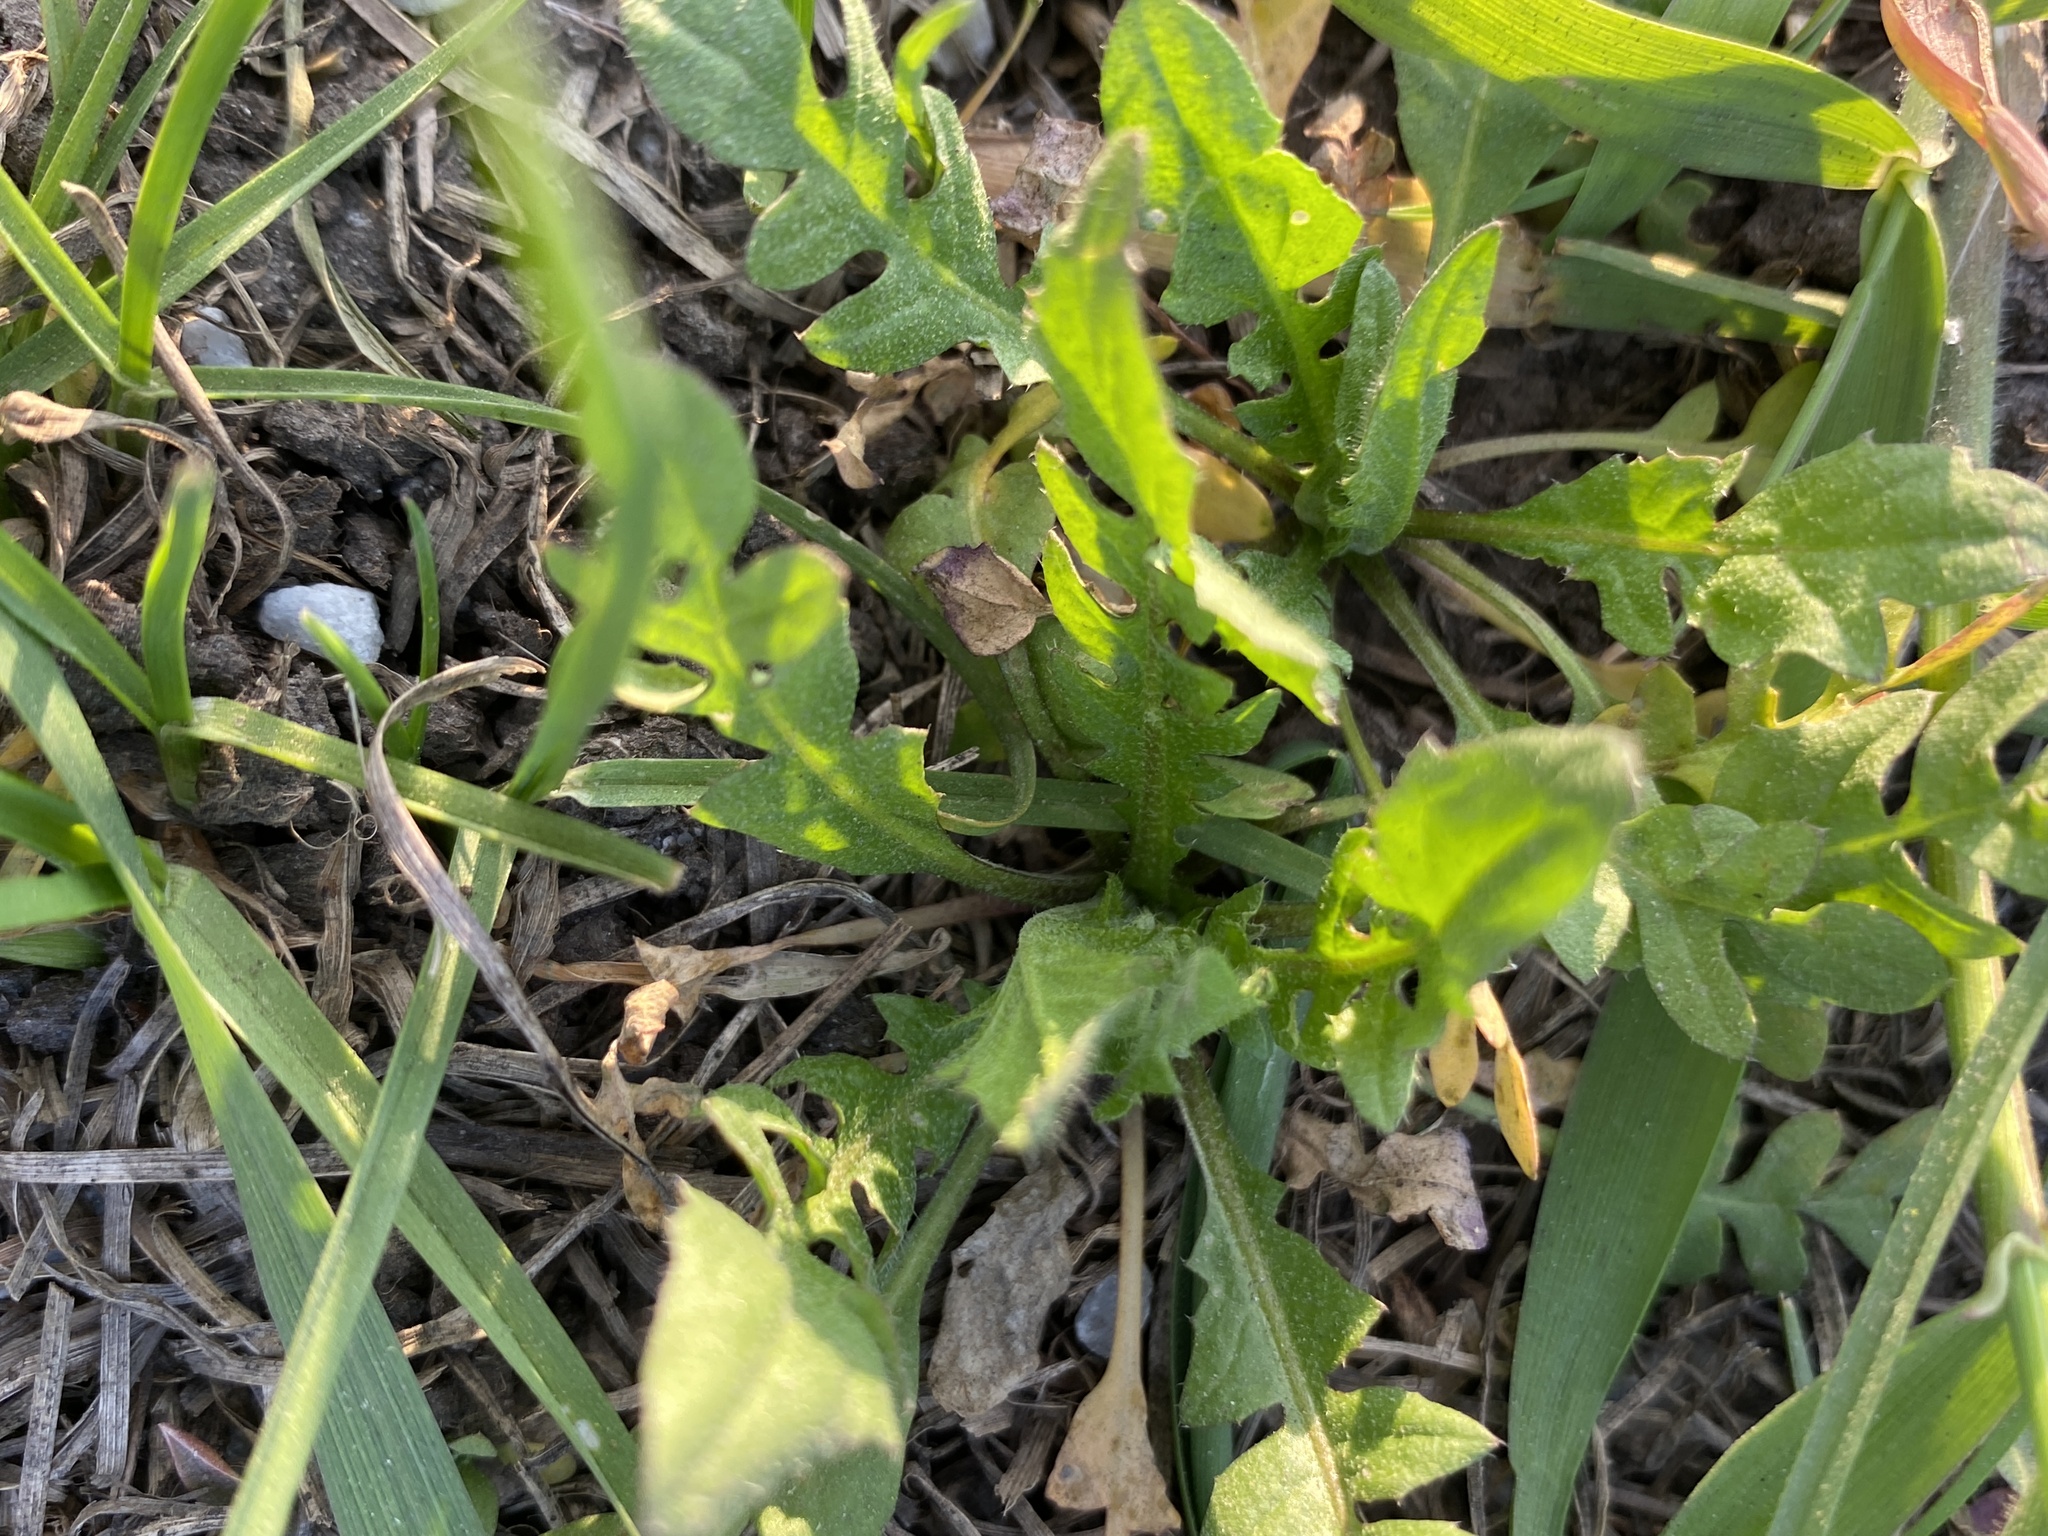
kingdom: Plantae
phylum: Tracheophyta
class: Magnoliopsida
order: Brassicales
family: Brassicaceae
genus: Capsella
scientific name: Capsella bursa-pastoris
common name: Shepherd's purse
